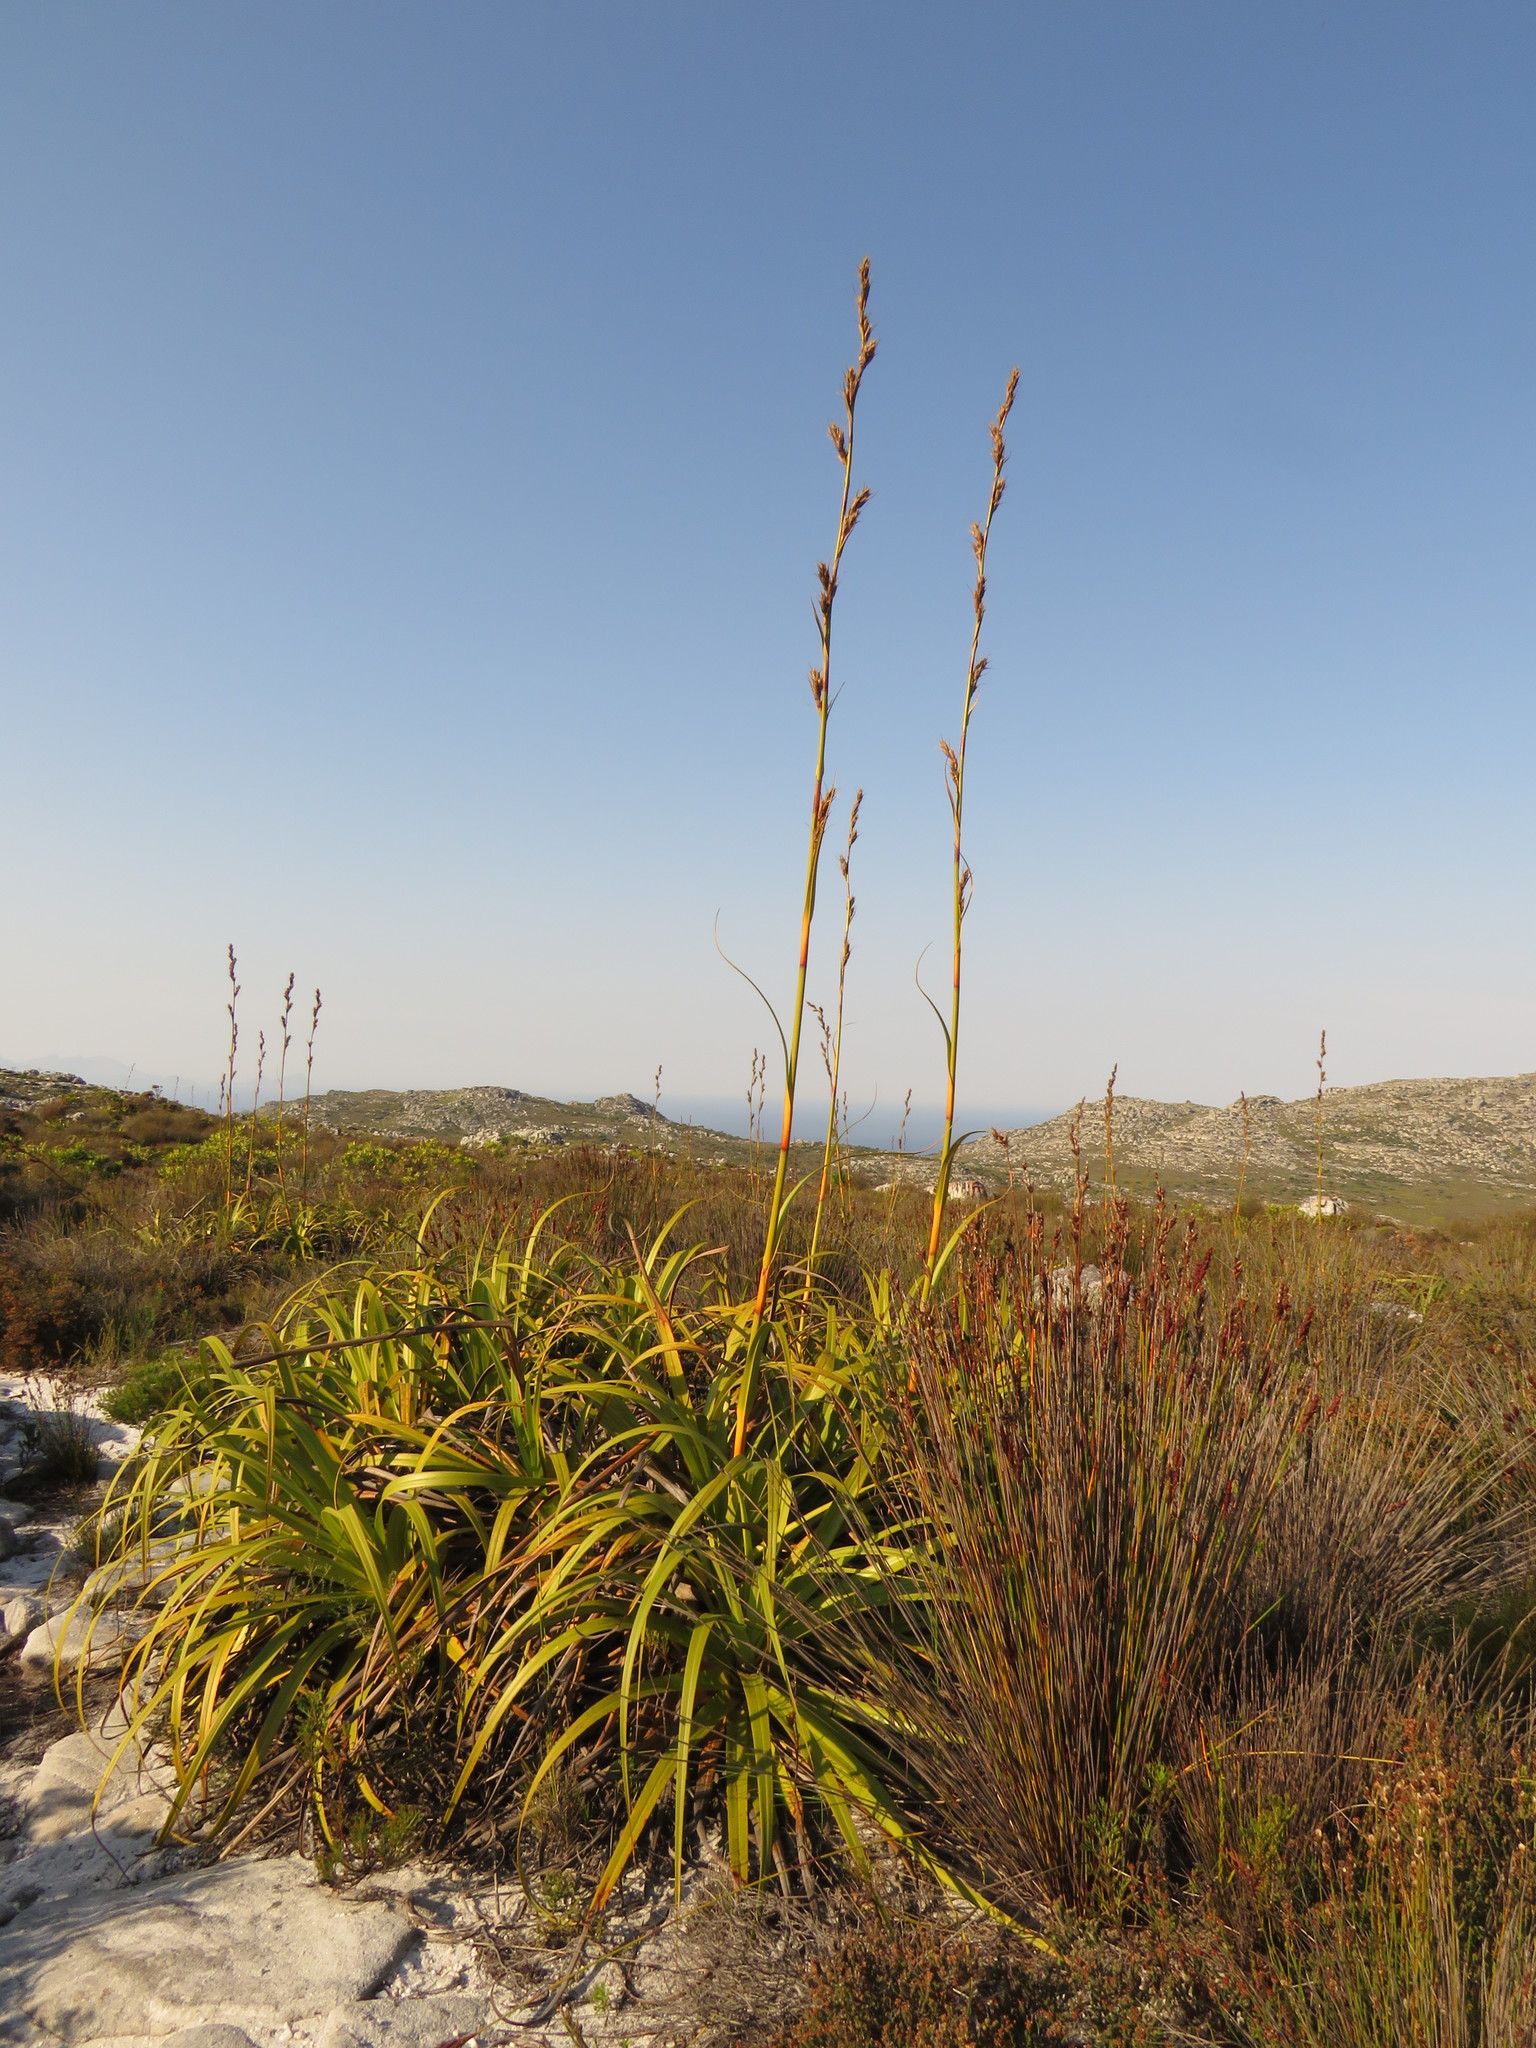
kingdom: Plantae
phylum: Tracheophyta
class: Liliopsida
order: Poales
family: Cyperaceae
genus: Tetraria
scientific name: Tetraria thermalis
